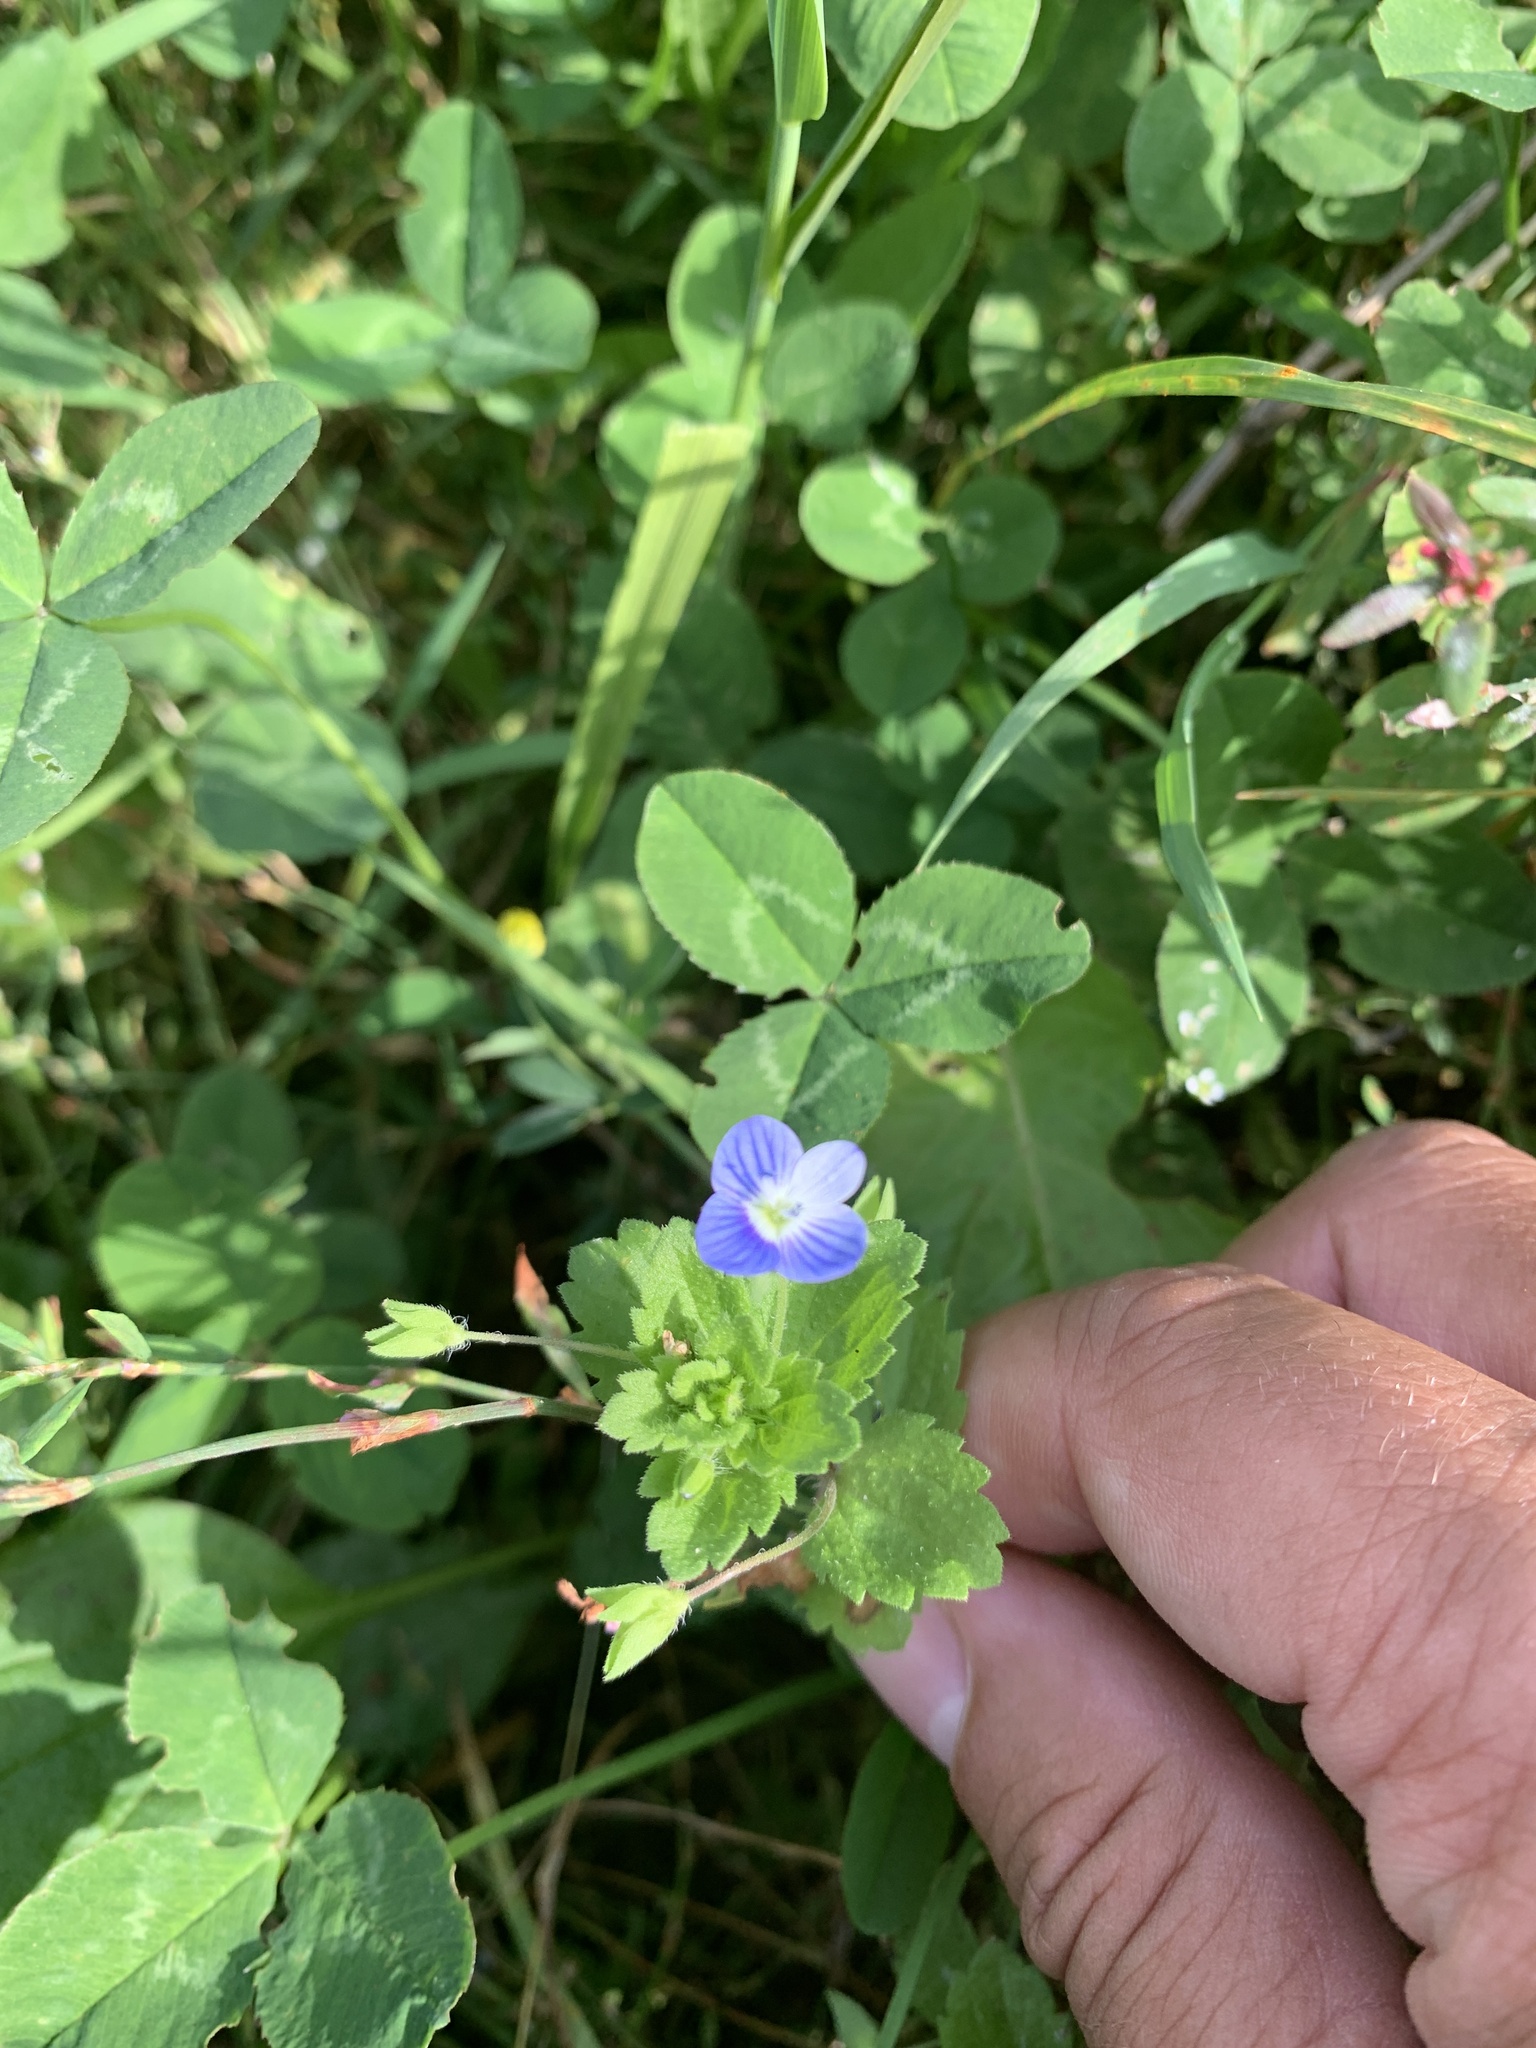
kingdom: Plantae
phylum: Tracheophyta
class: Magnoliopsida
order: Lamiales
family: Plantaginaceae
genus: Veronica
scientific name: Veronica persica
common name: Common field-speedwell
